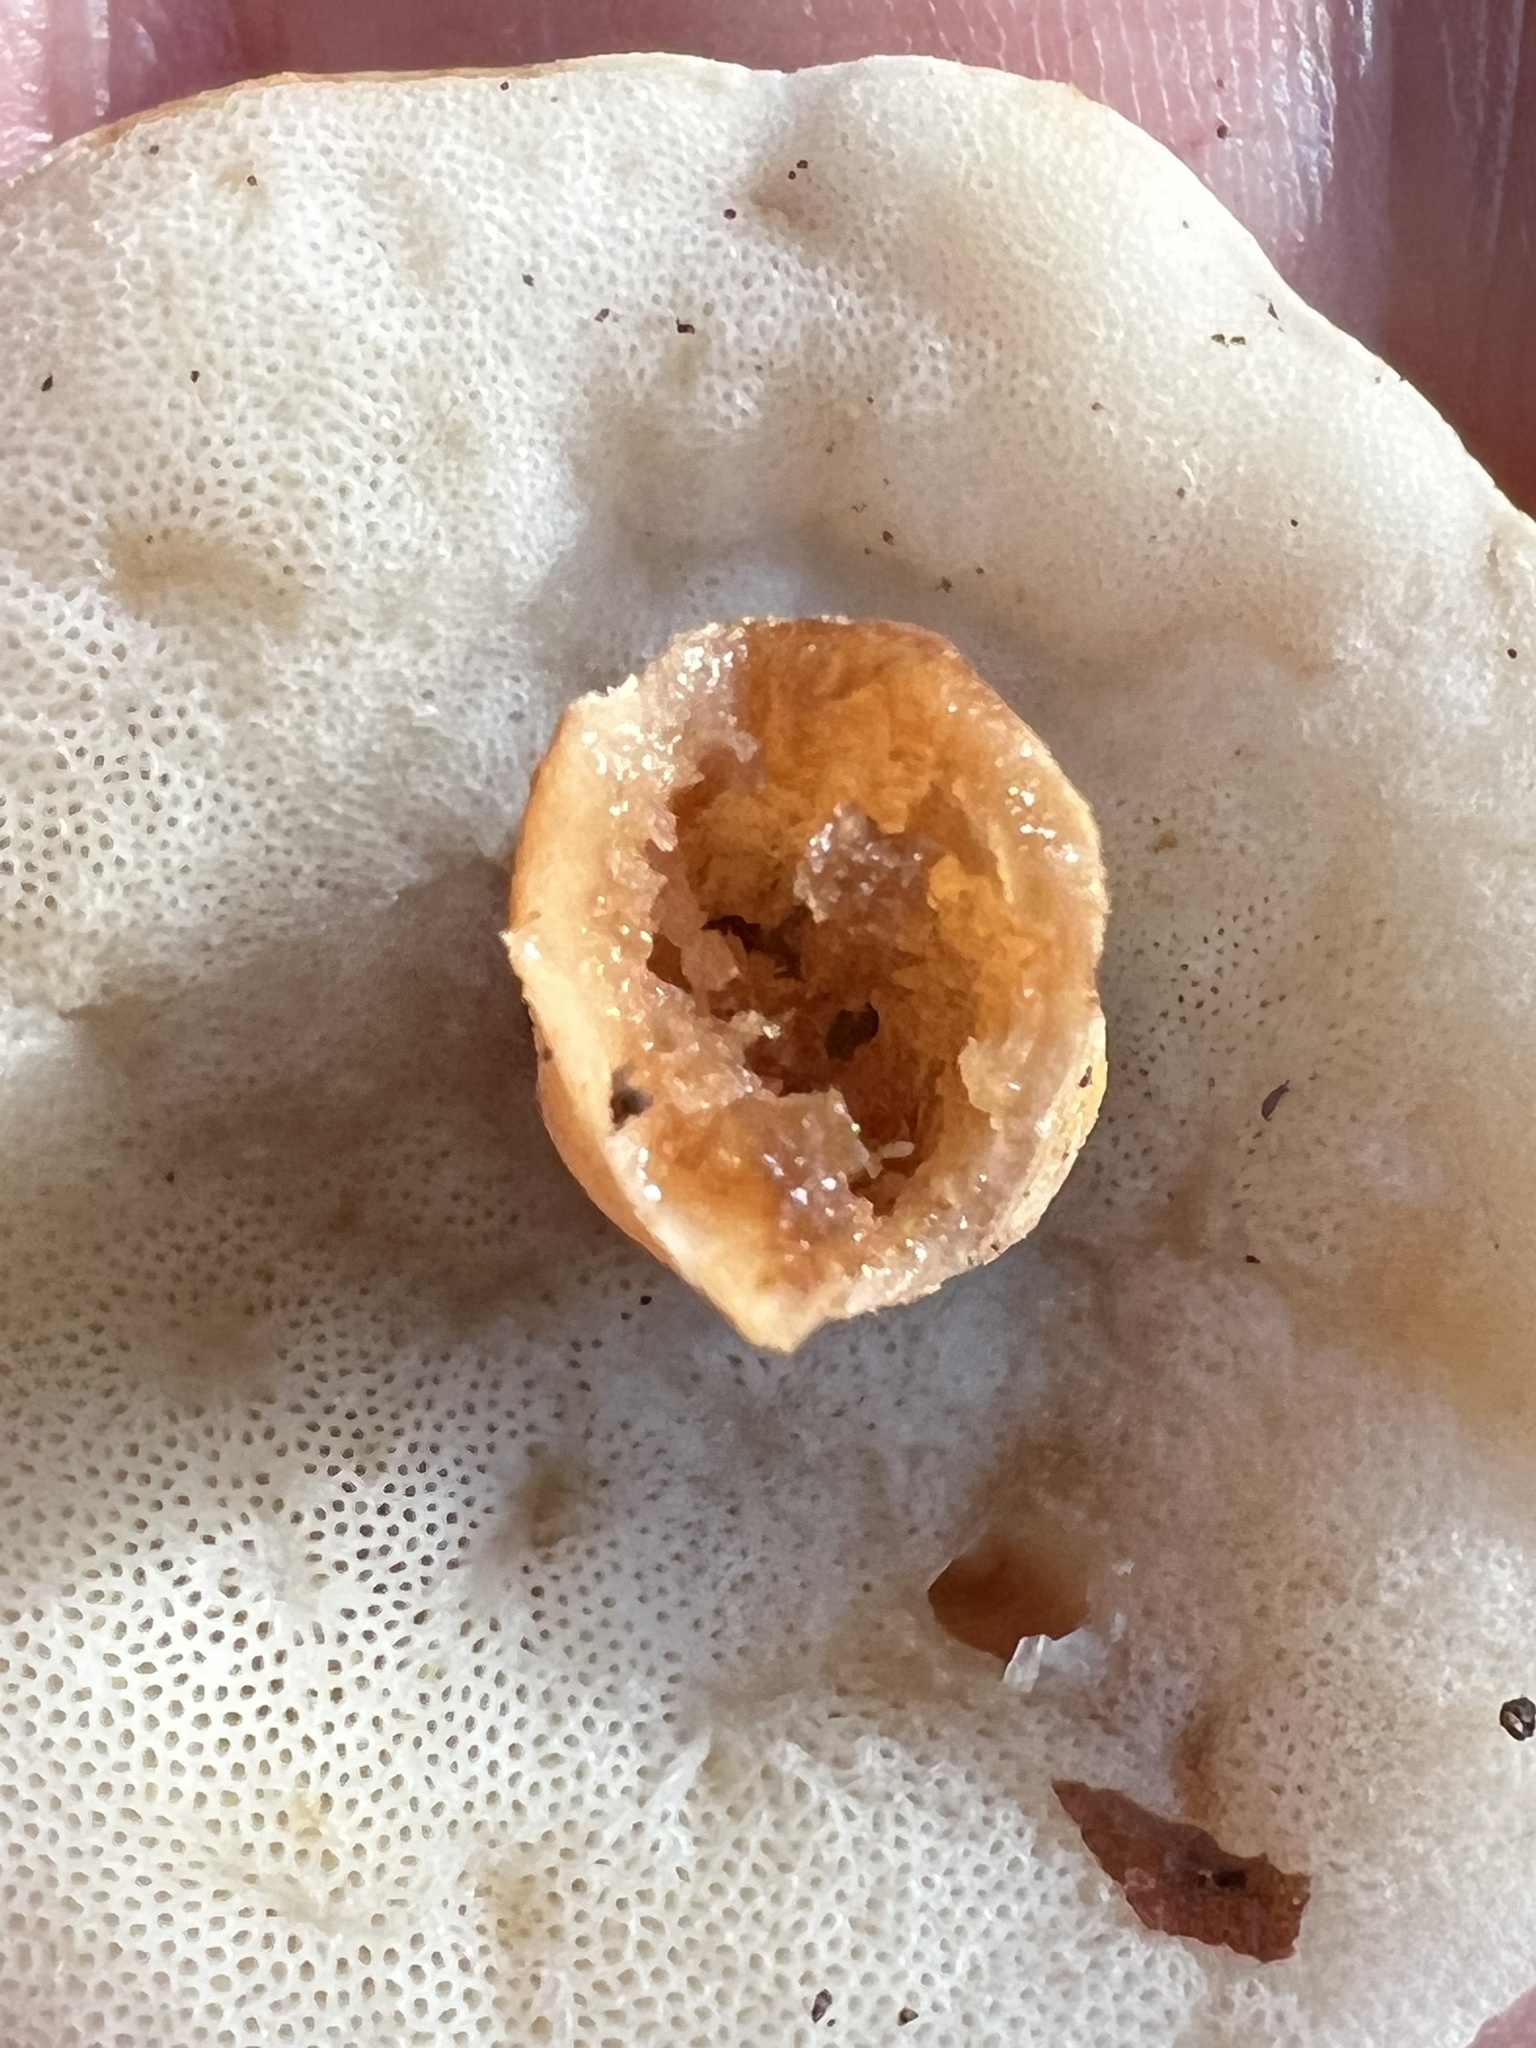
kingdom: Fungi
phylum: Basidiomycota
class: Agaricomycetes
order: Boletales
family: Gyroporaceae
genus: Gyroporus
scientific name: Gyroporus castaneus
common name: Chestnut bolete
